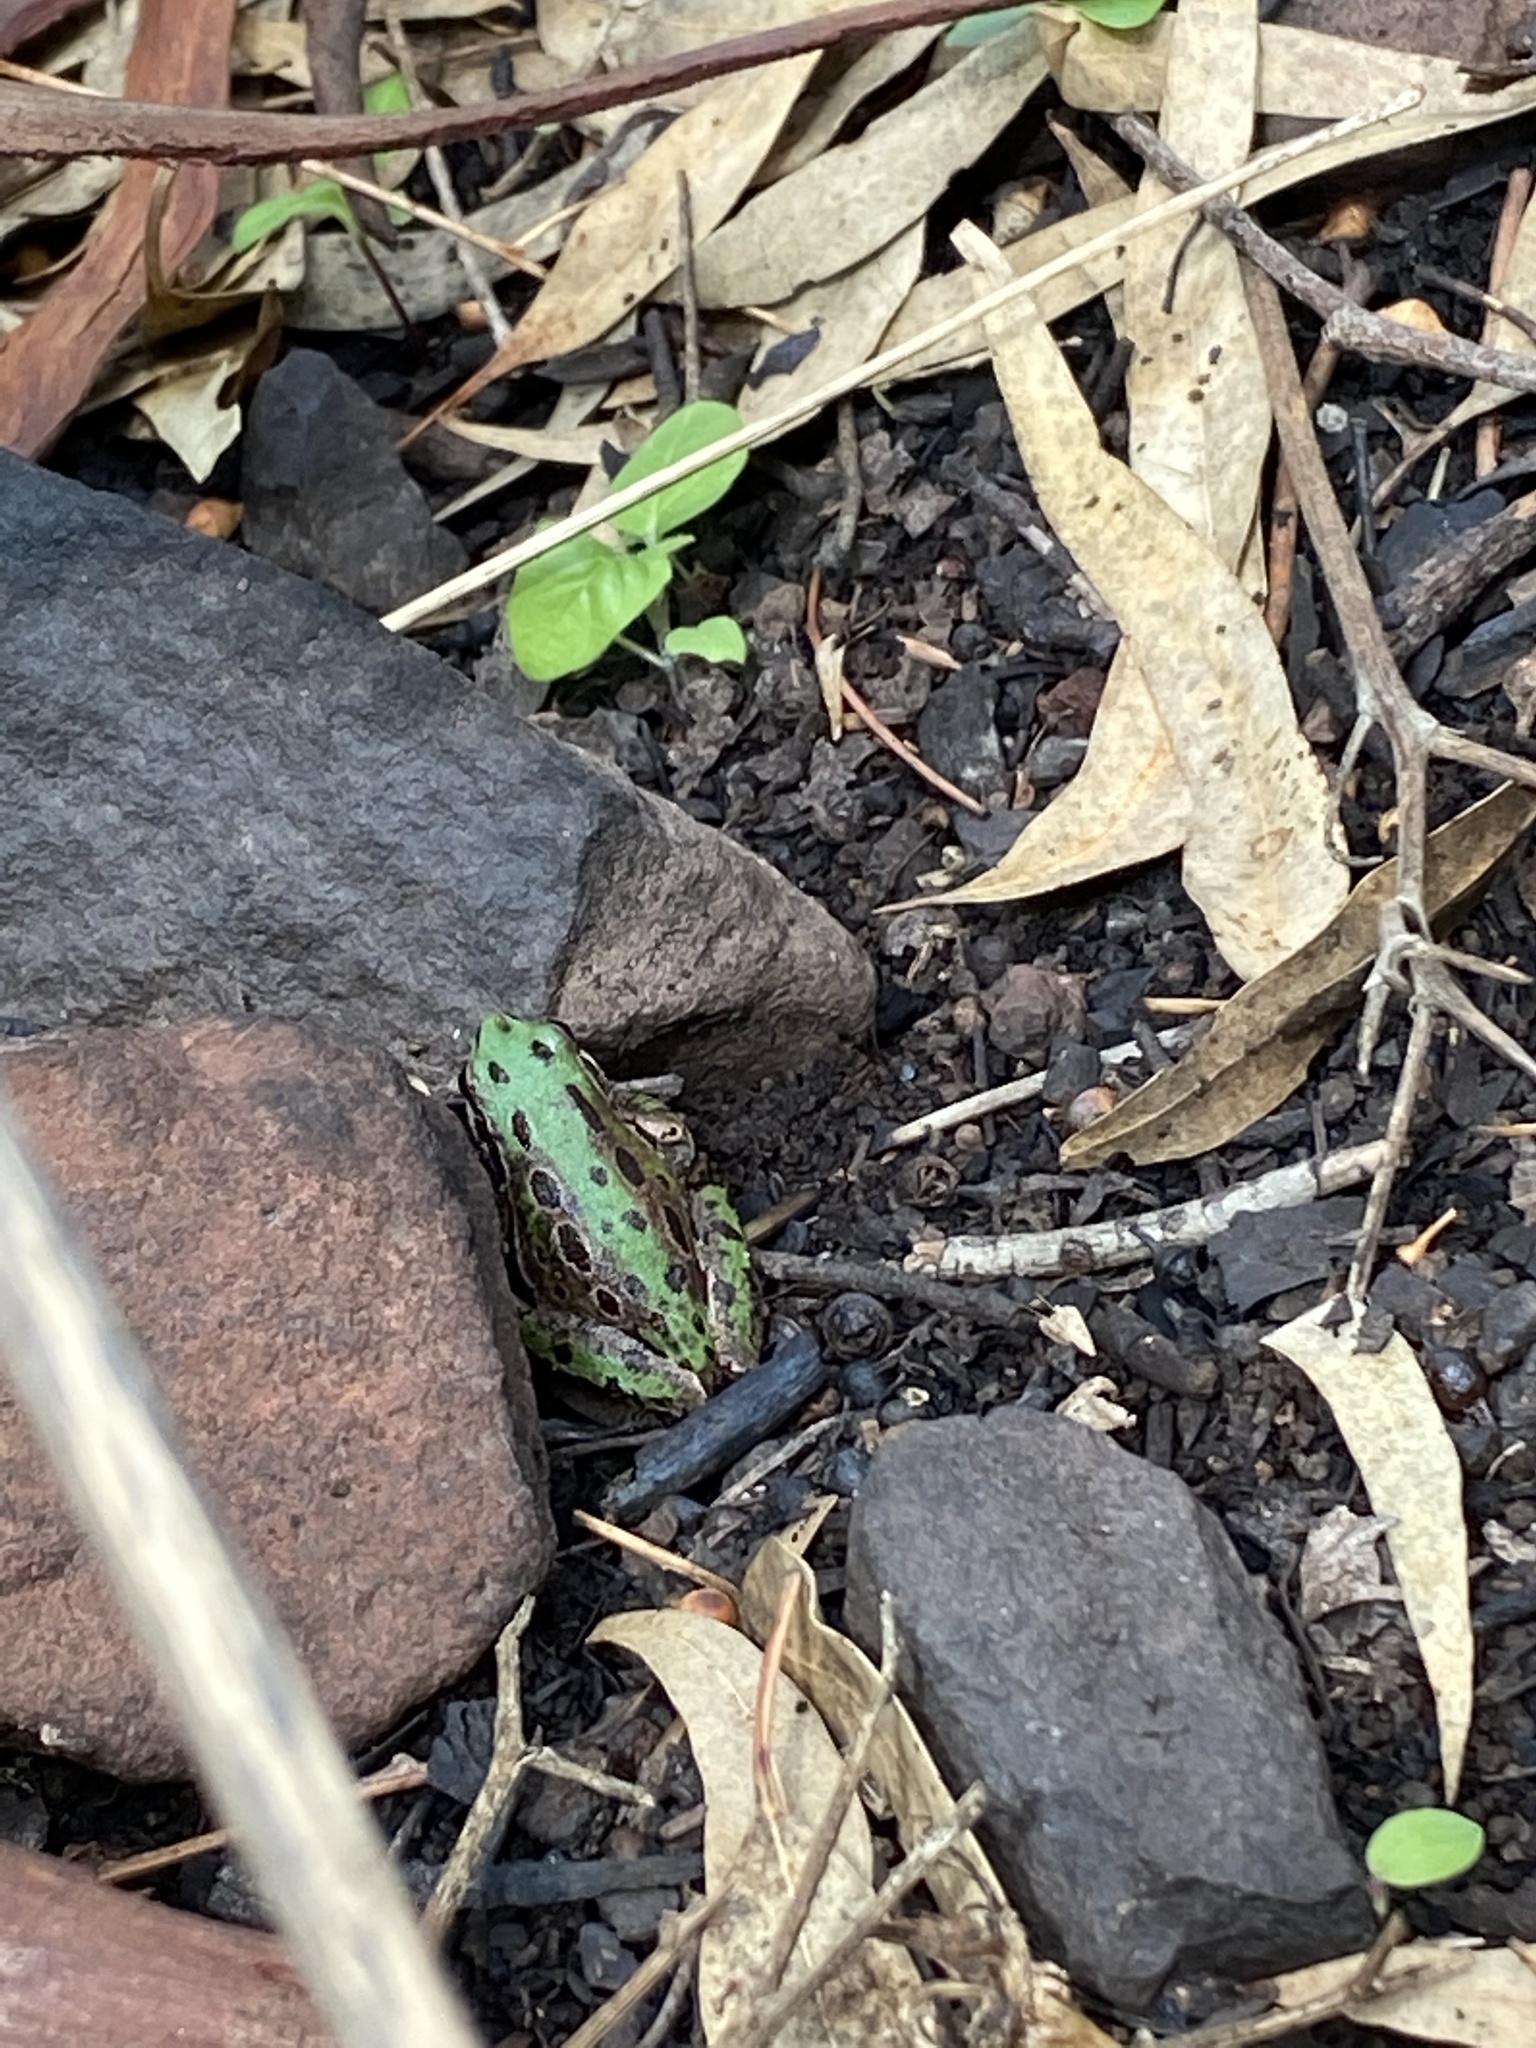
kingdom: Animalia
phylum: Chordata
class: Amphibia
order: Anura
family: Hylidae
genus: Dryophytes
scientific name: Dryophytes eximius
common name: Mountain treefrog
